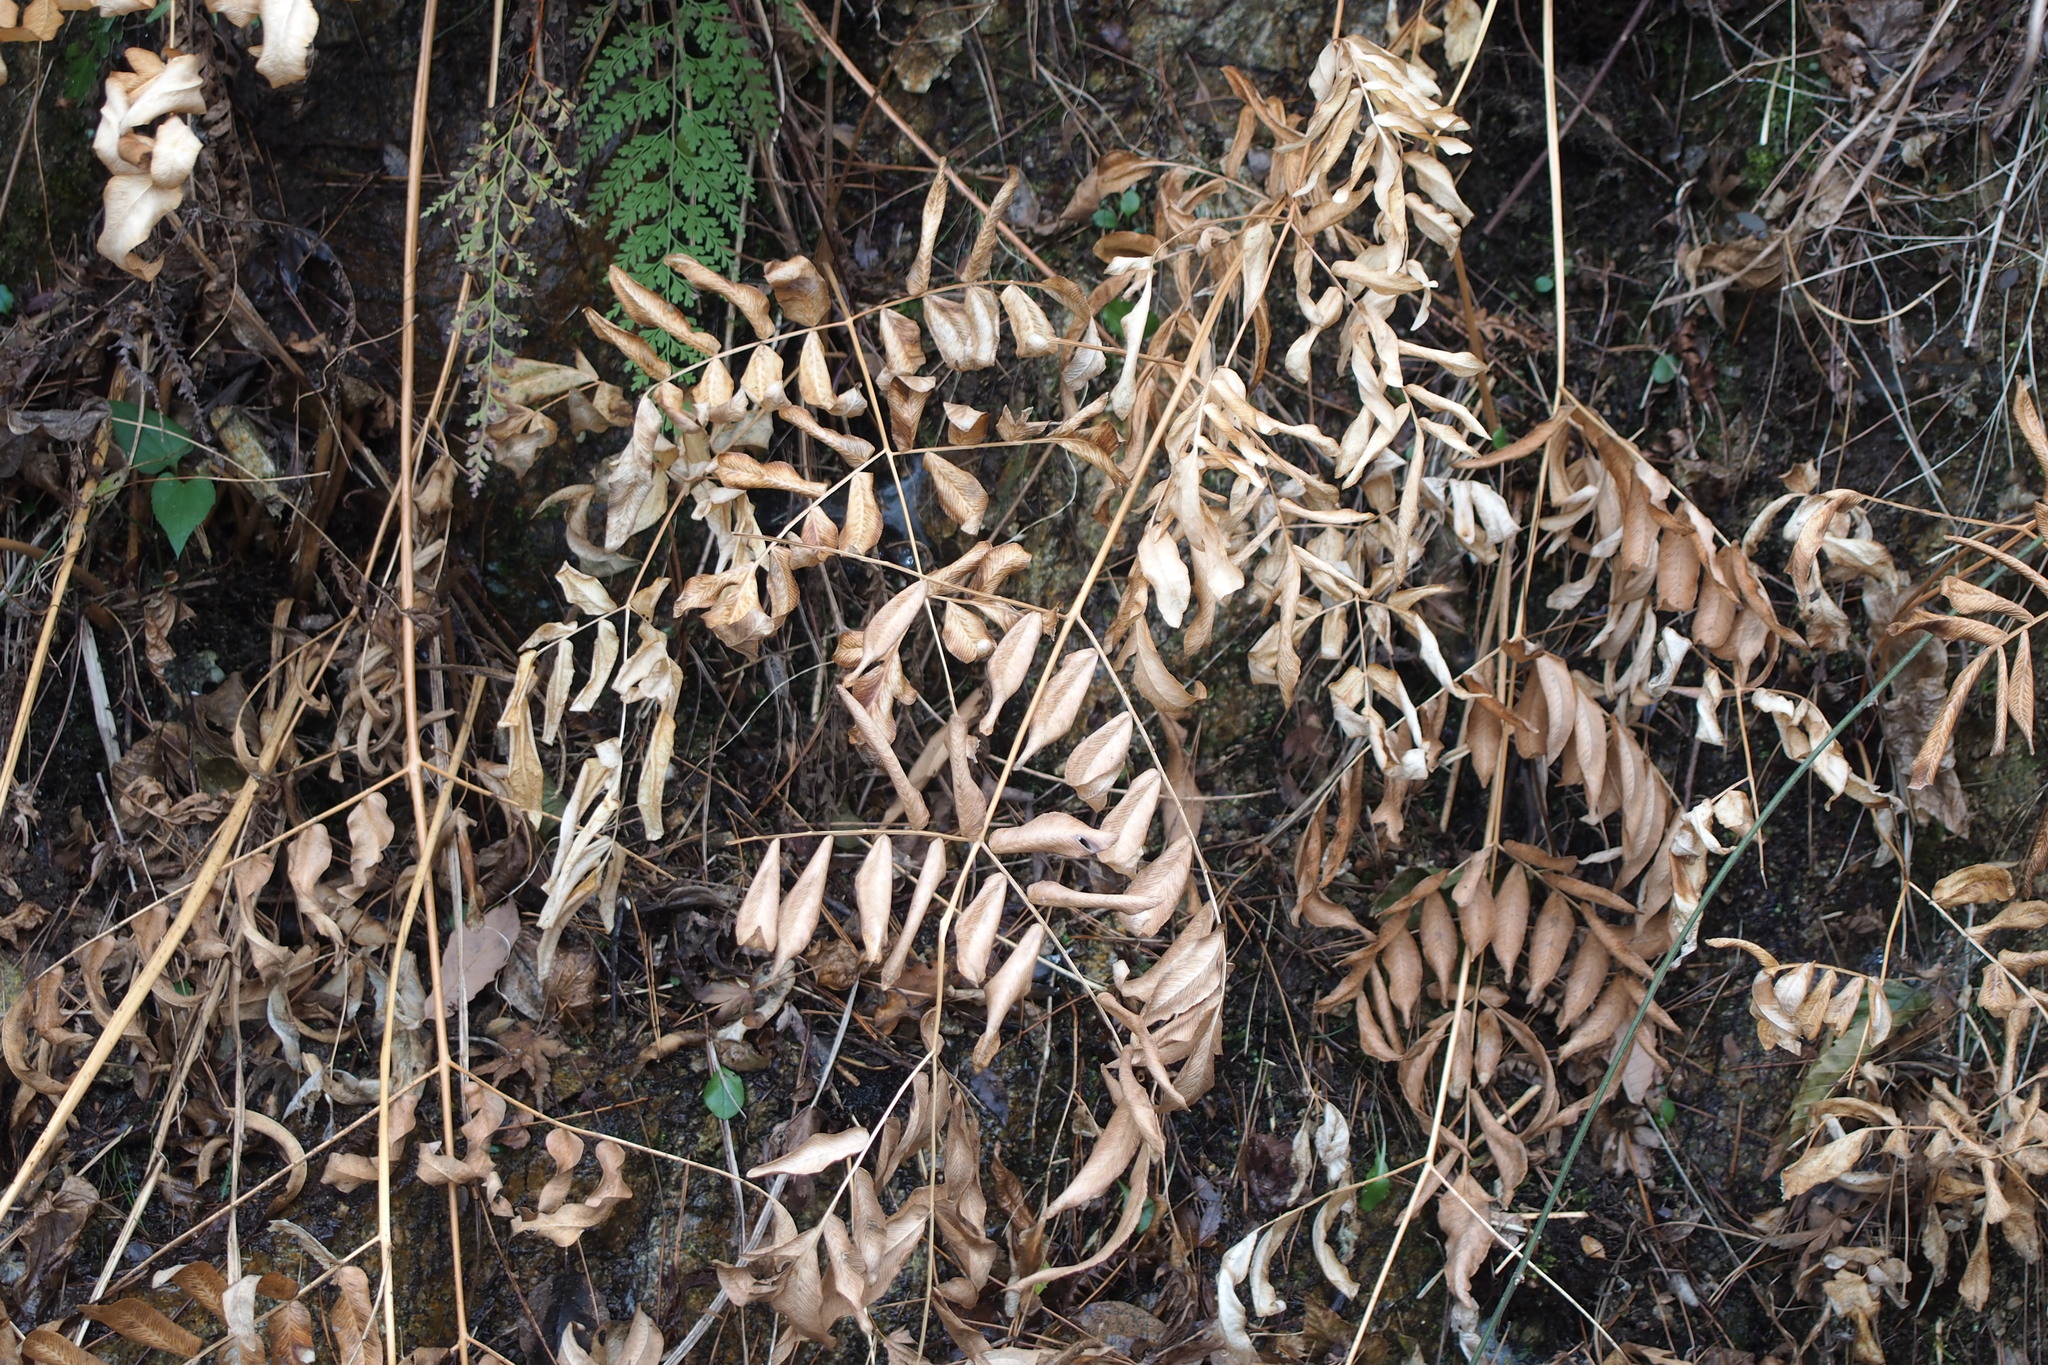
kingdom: Plantae
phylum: Tracheophyta
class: Polypodiopsida
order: Osmundales
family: Osmundaceae
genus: Osmunda
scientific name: Osmunda japonica
